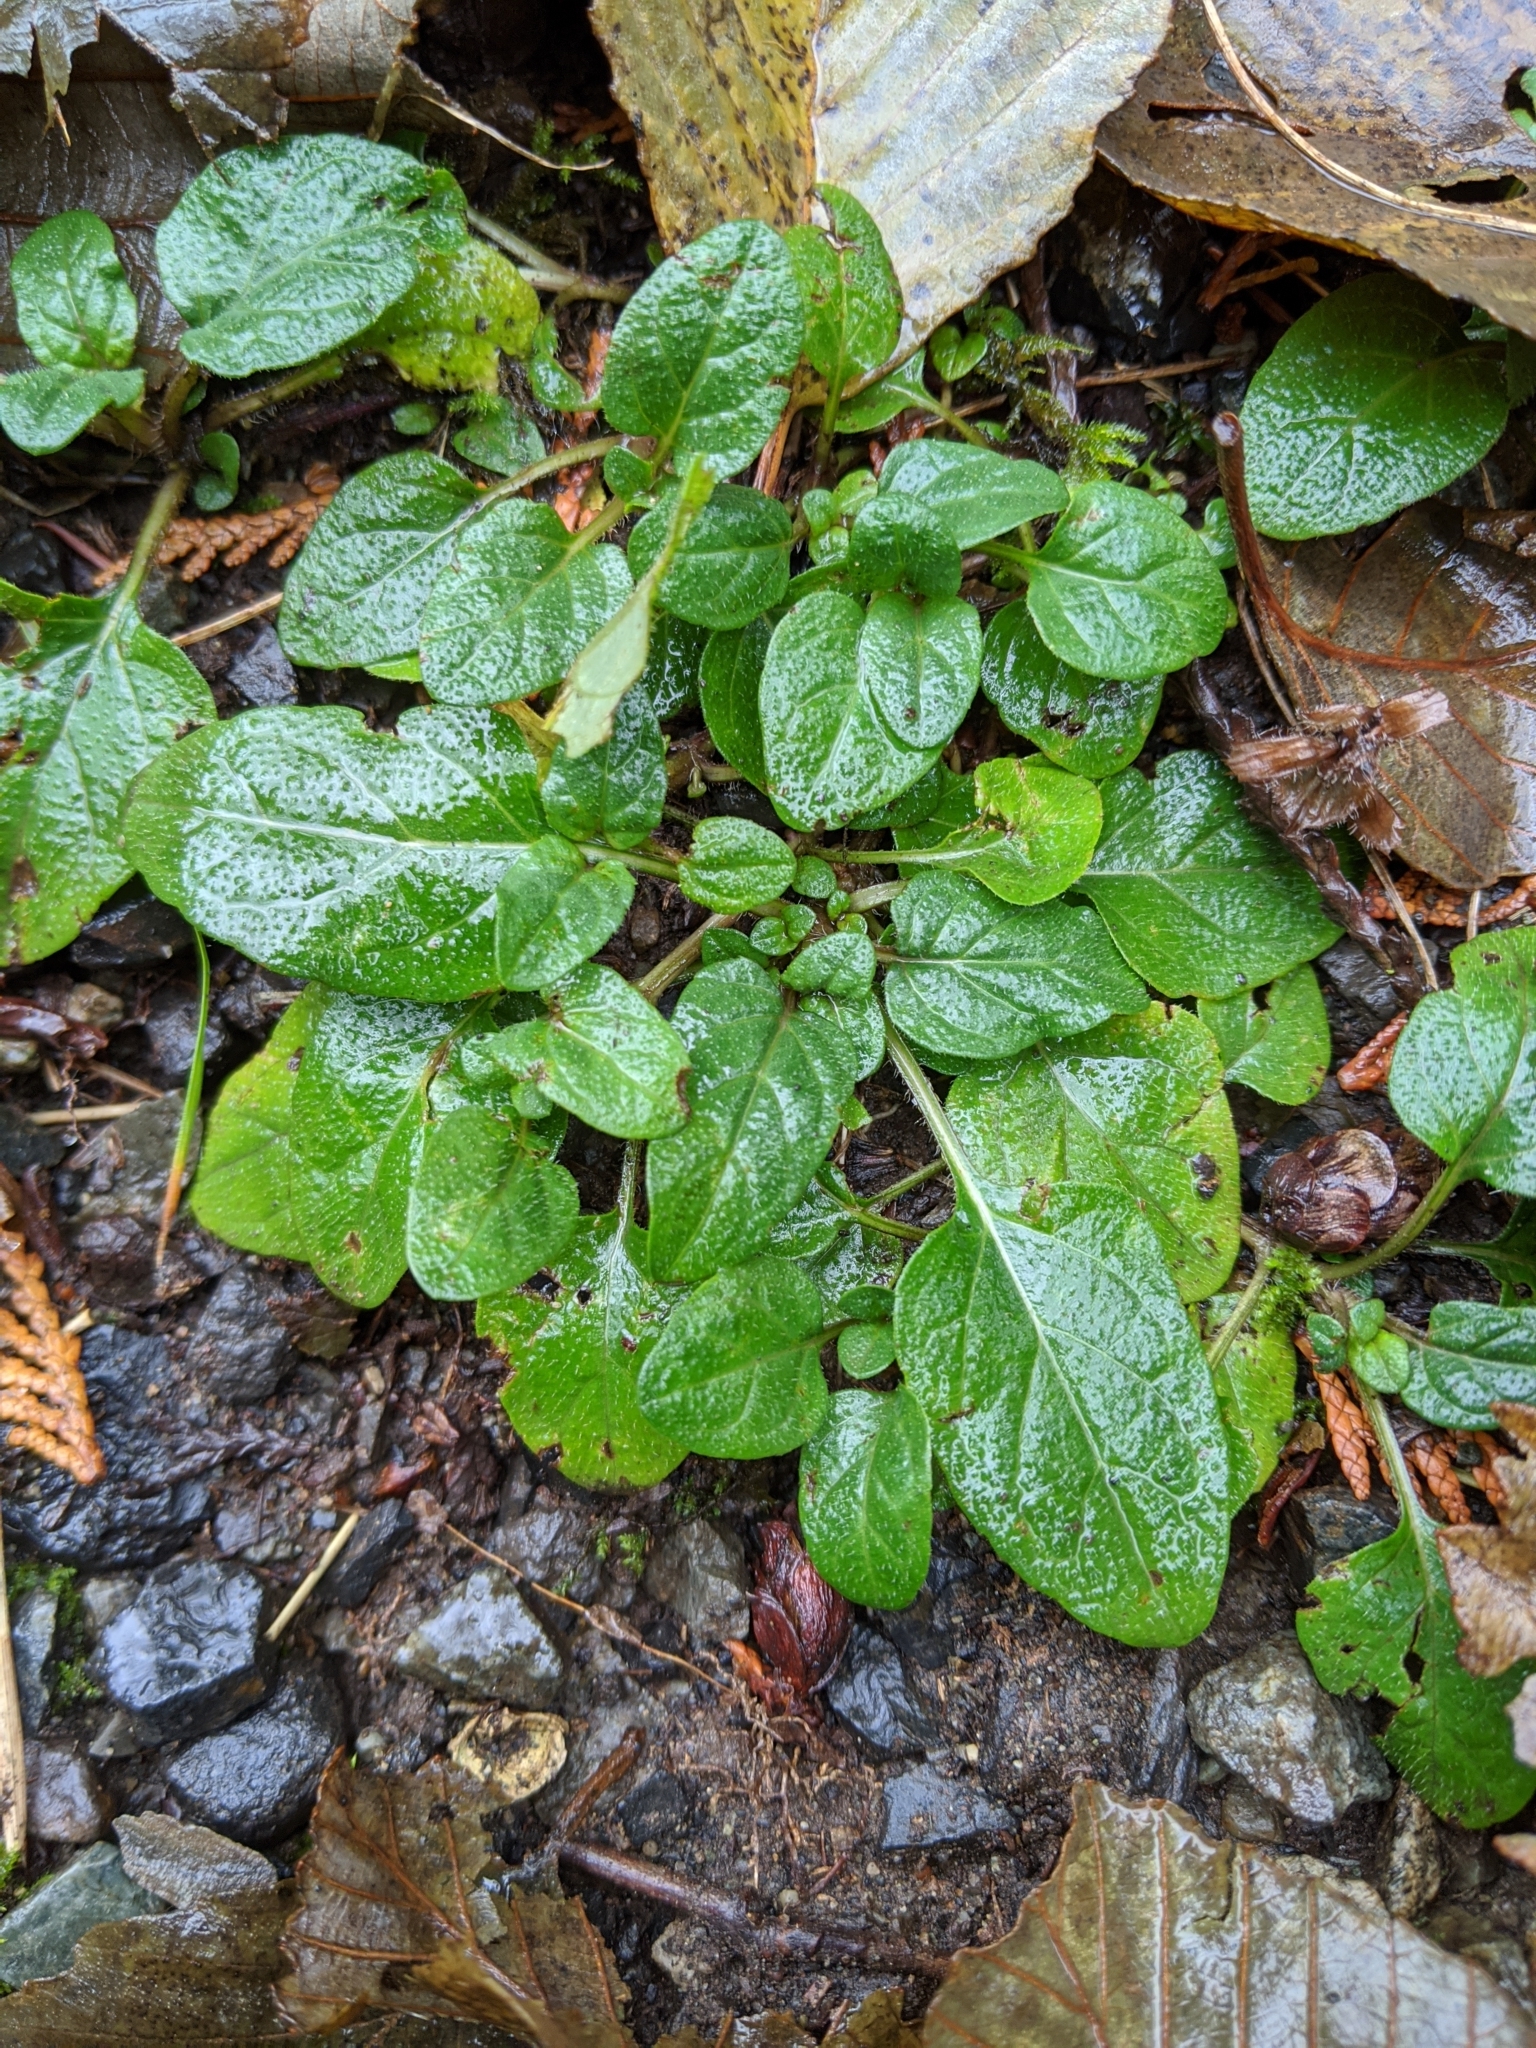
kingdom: Plantae
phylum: Tracheophyta
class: Magnoliopsida
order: Lamiales
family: Lamiaceae
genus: Prunella
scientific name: Prunella vulgaris
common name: Heal-all
